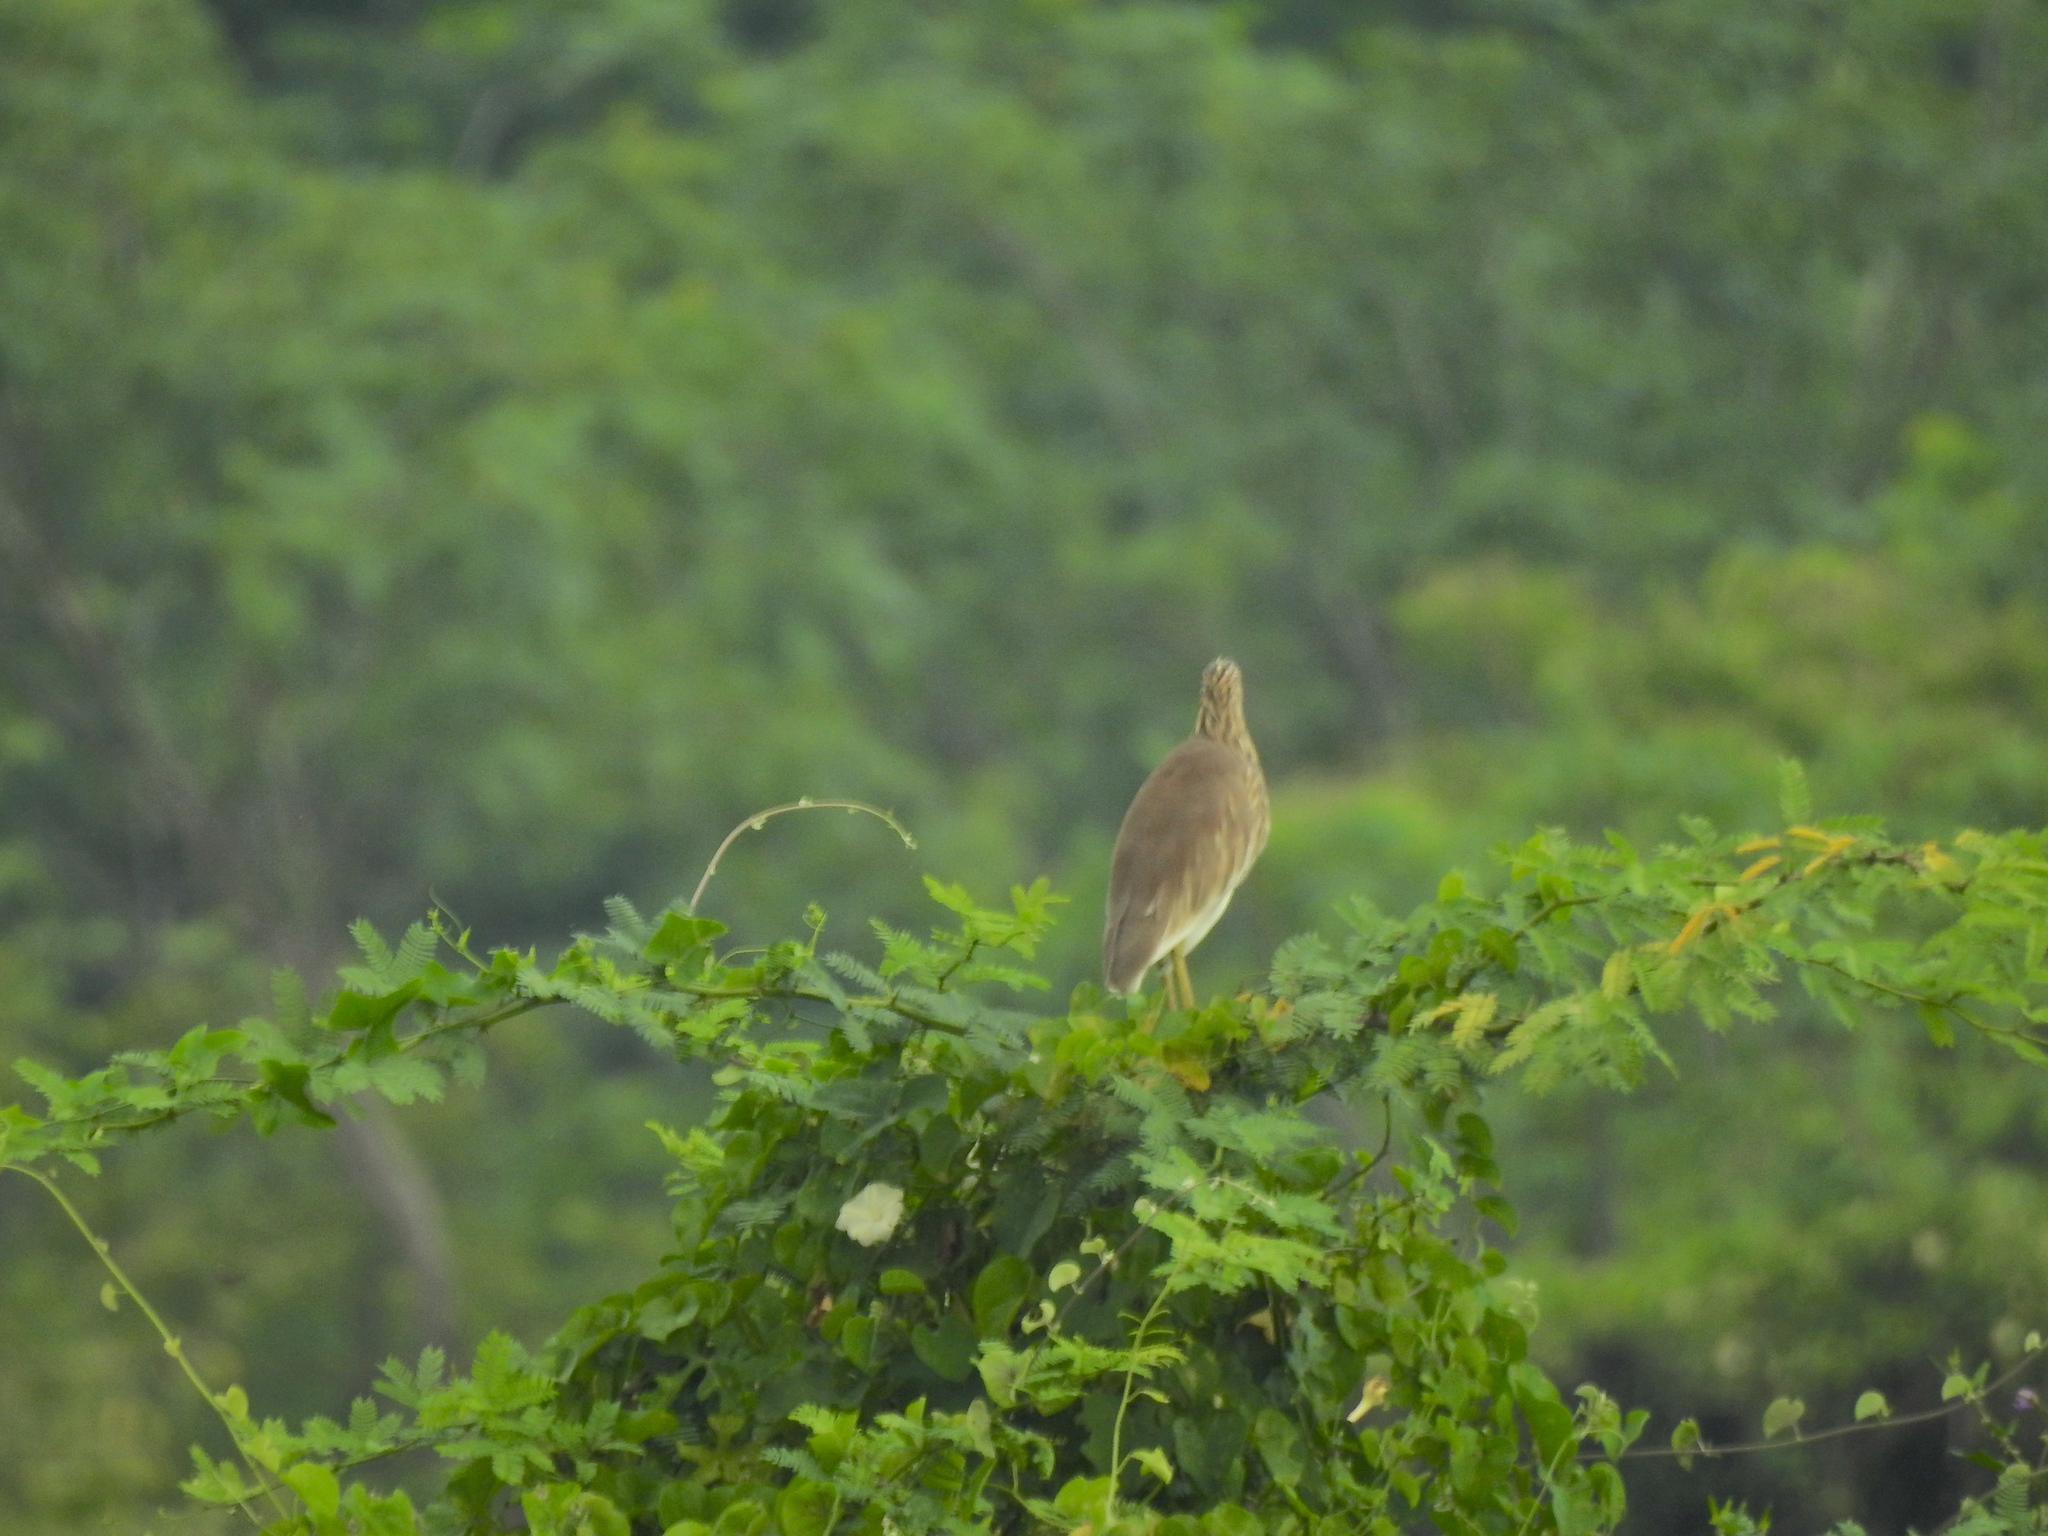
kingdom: Animalia
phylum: Chordata
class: Aves
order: Pelecaniformes
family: Ardeidae
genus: Ardeola
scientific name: Ardeola grayii
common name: Indian pond heron
